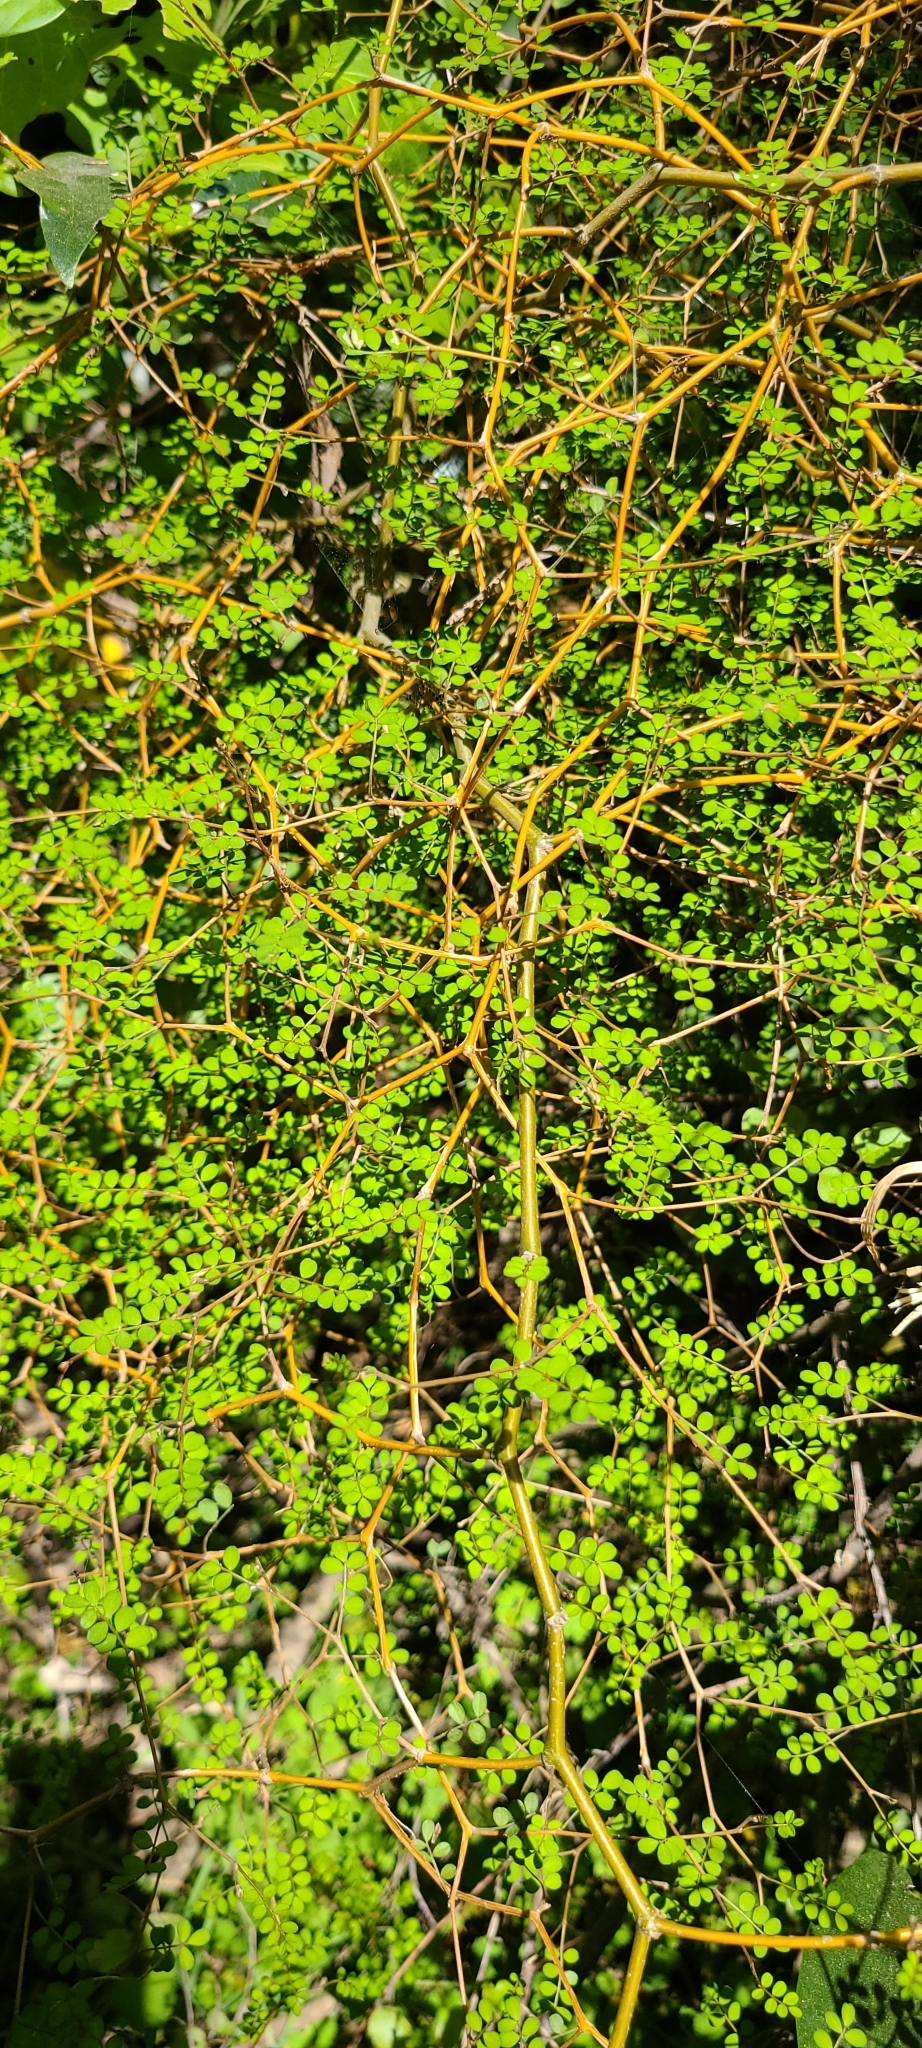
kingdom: Plantae
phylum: Tracheophyta
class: Magnoliopsida
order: Fabales
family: Fabaceae
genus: Sophora
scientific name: Sophora microphylla
